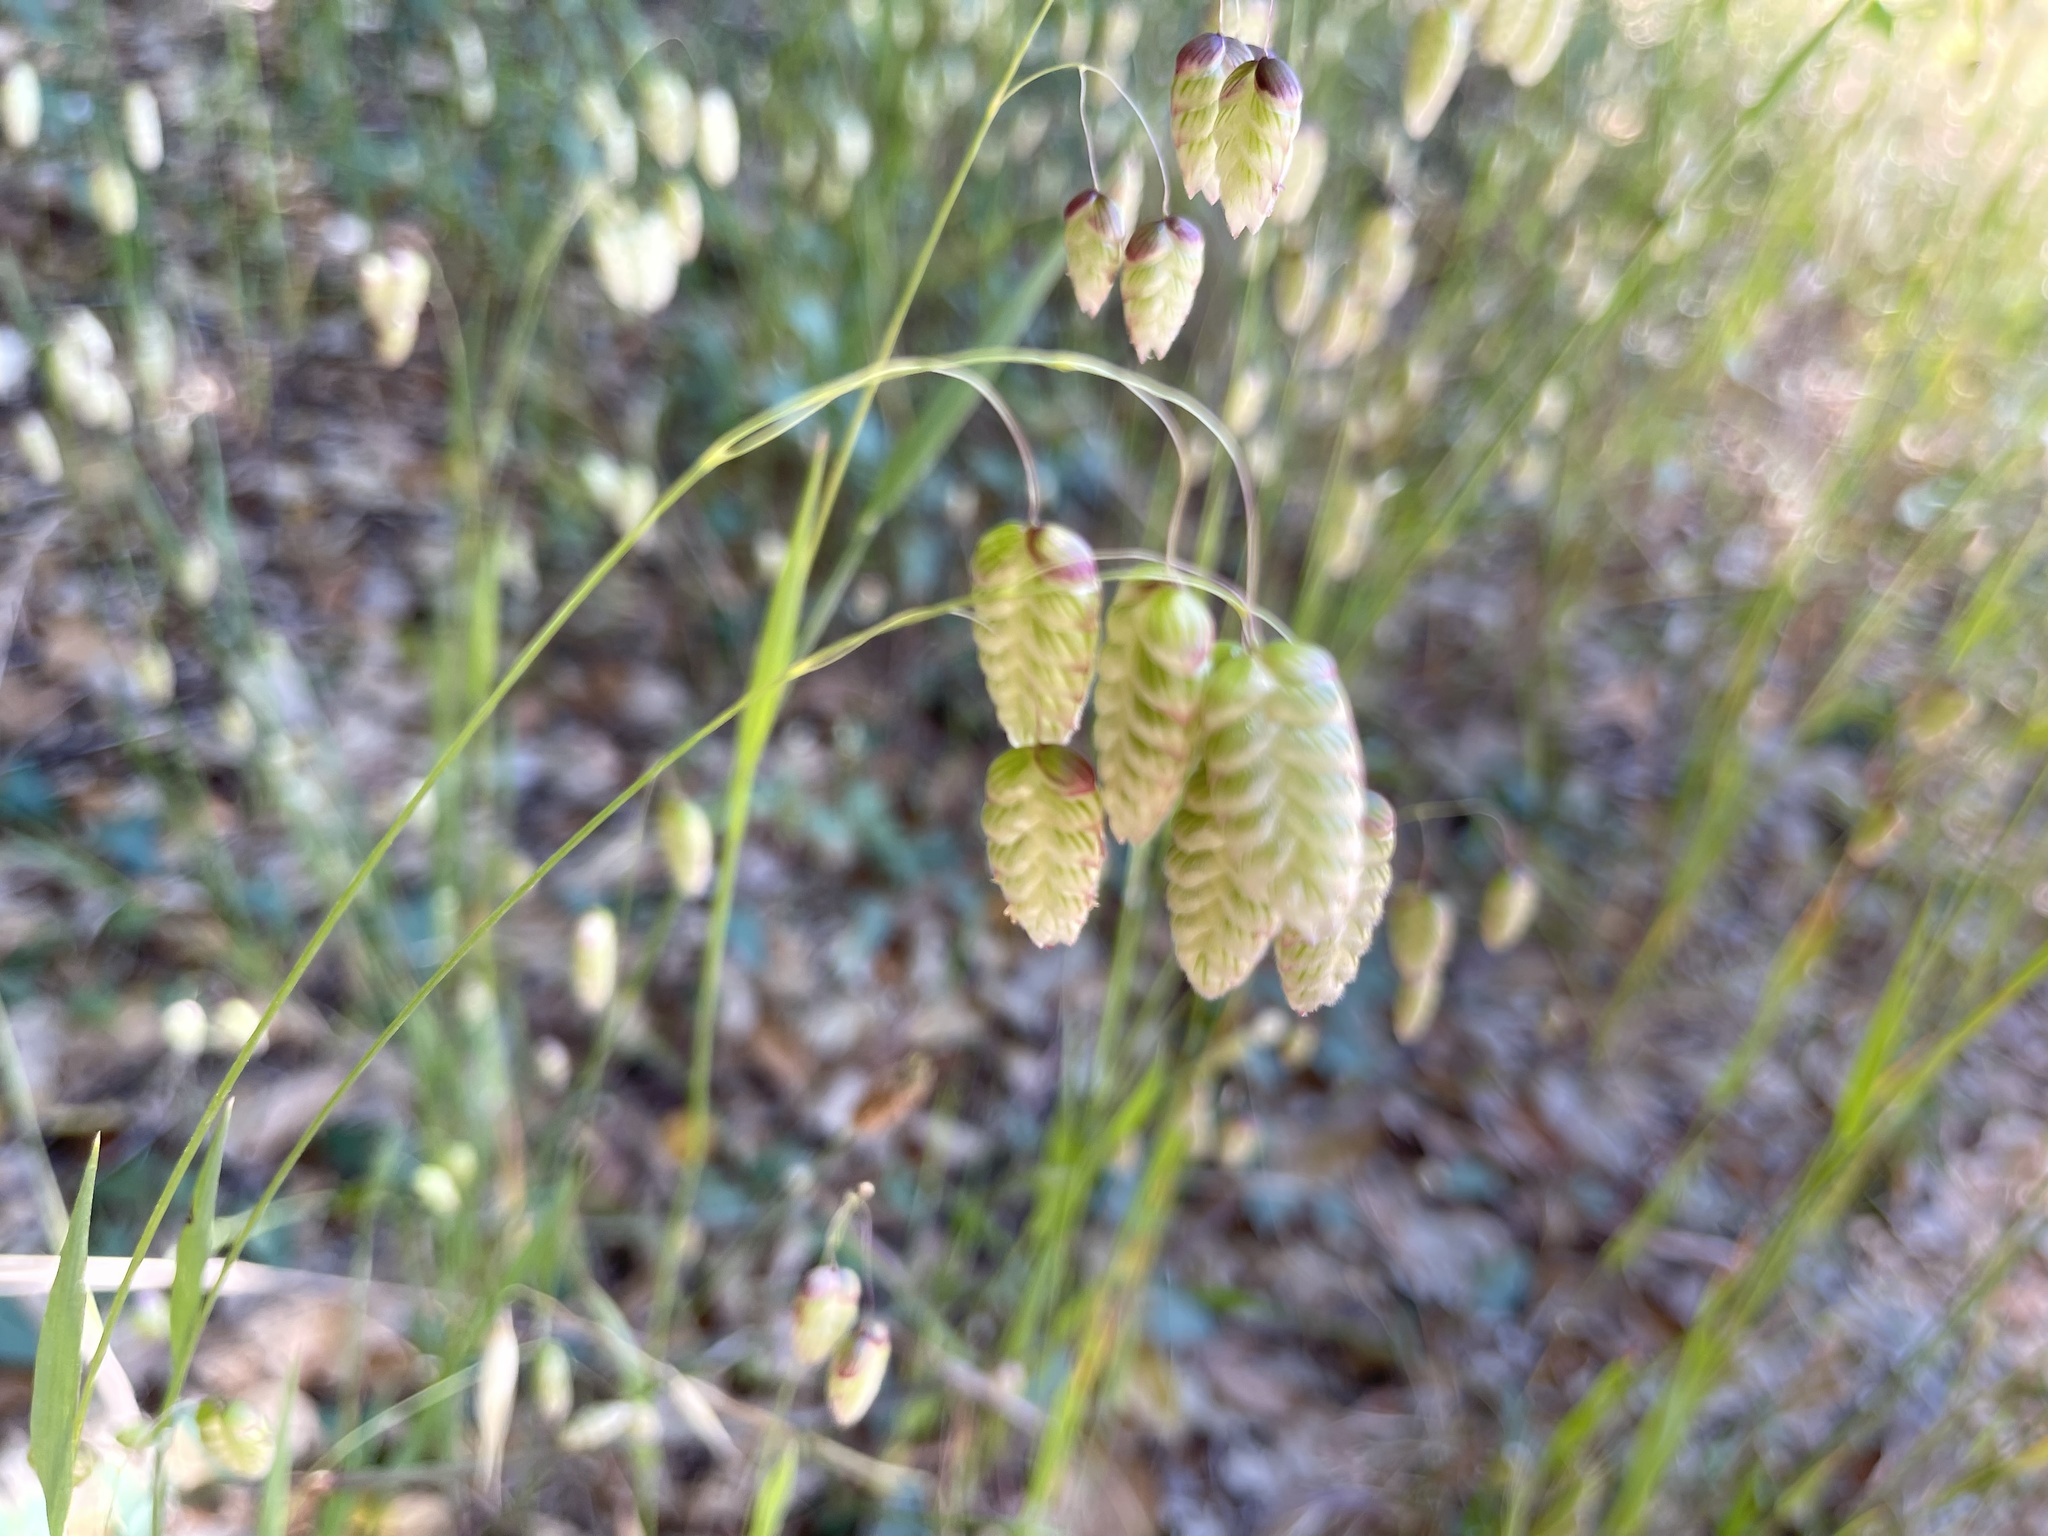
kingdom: Plantae
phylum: Tracheophyta
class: Liliopsida
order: Poales
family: Poaceae
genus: Briza
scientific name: Briza maxima
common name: Big quakinggrass
